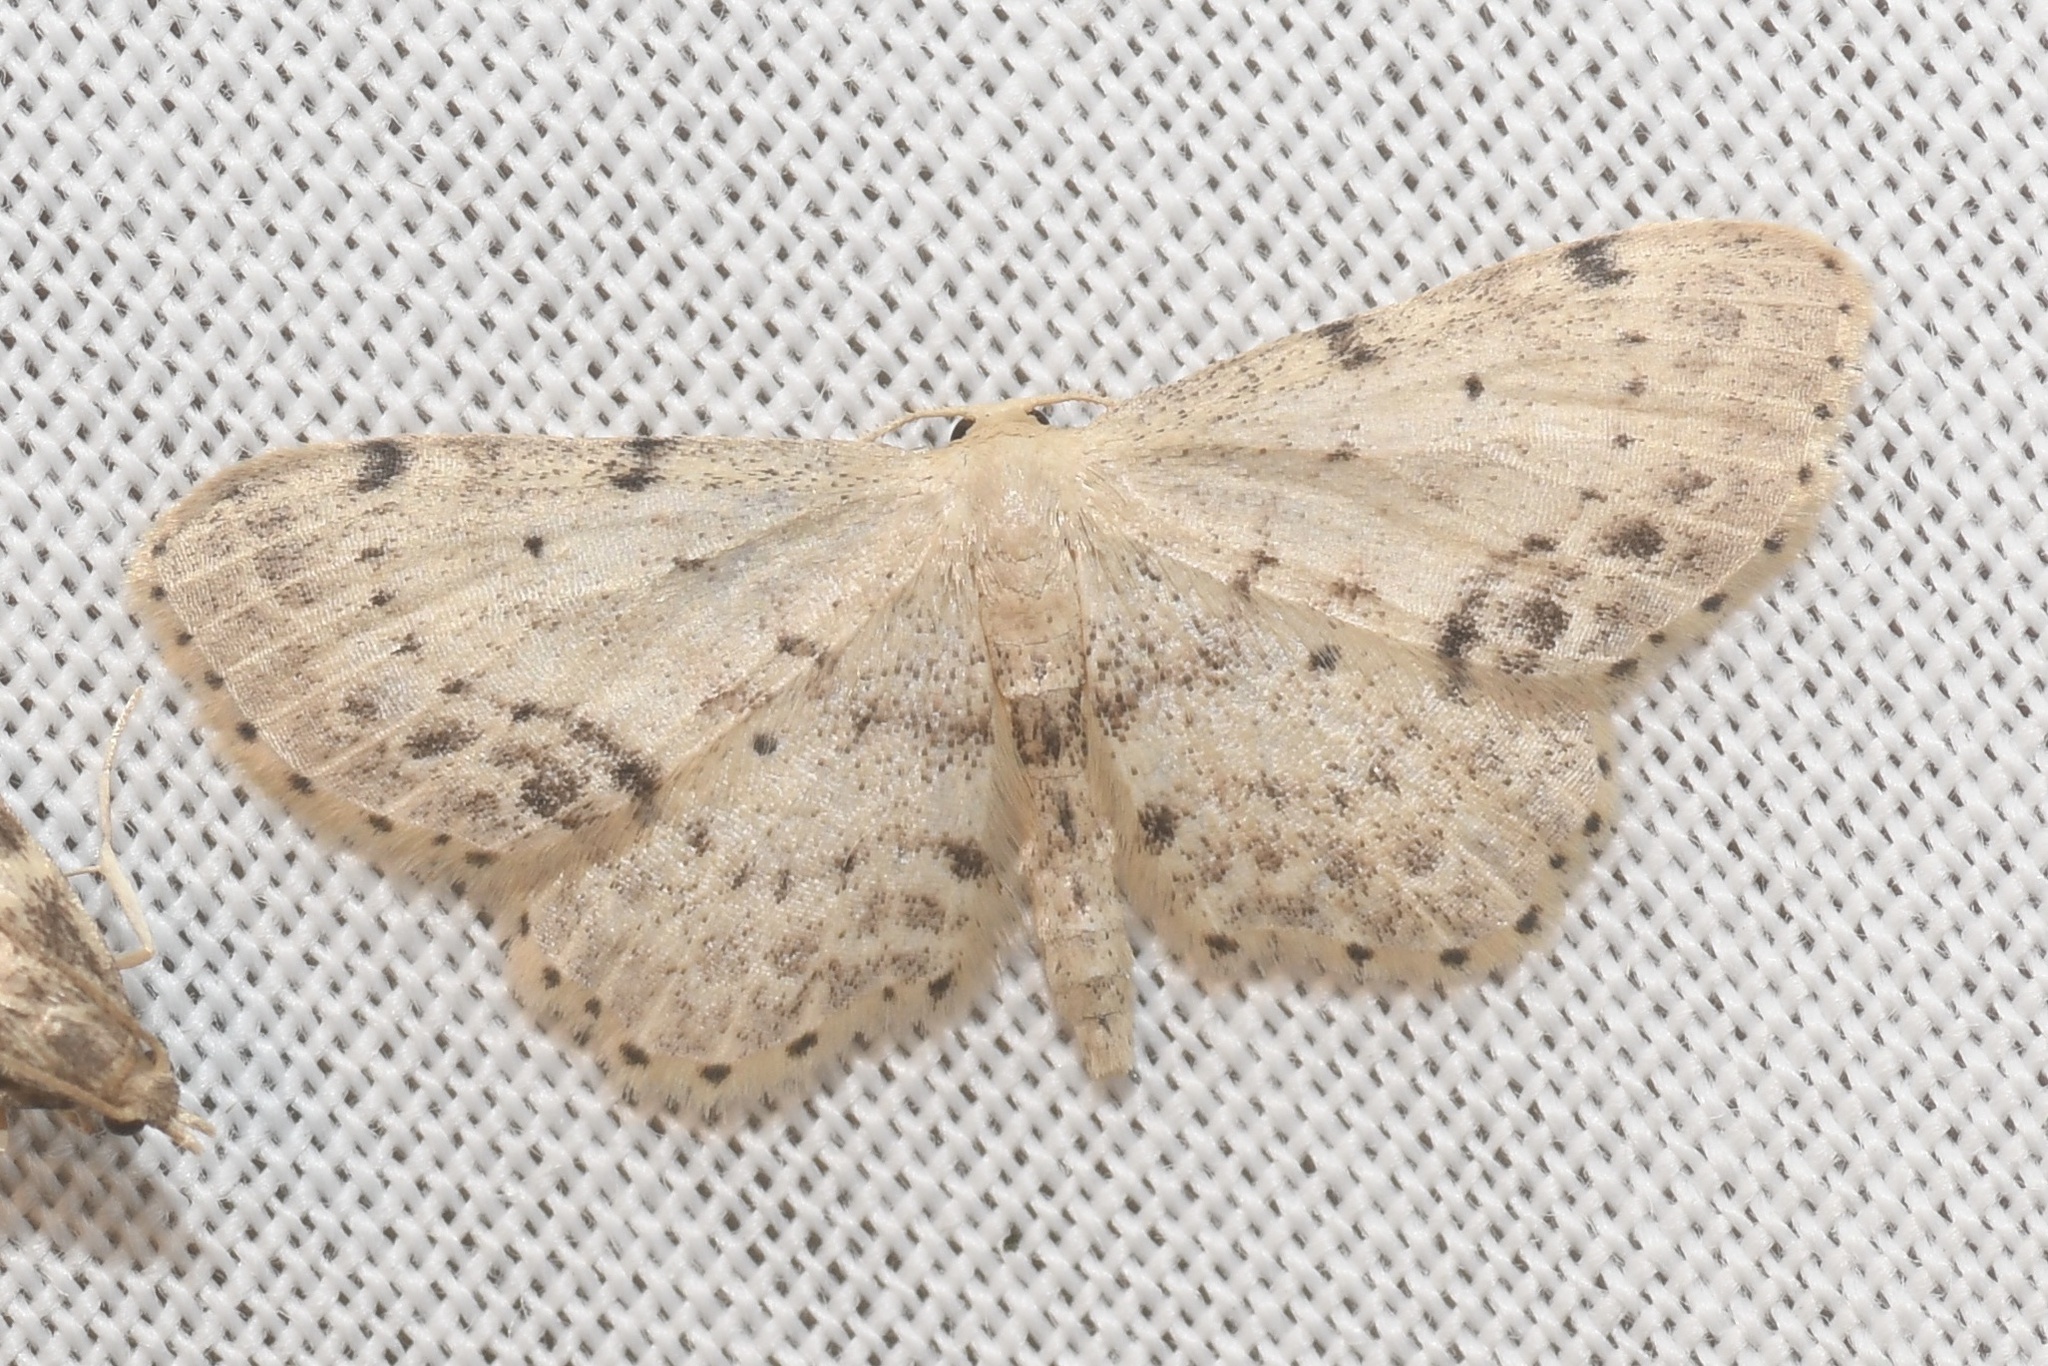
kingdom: Animalia
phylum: Arthropoda
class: Insecta
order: Lepidoptera
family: Geometridae
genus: Idaea
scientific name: Idaea dimidiata
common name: Single-dotted wave
